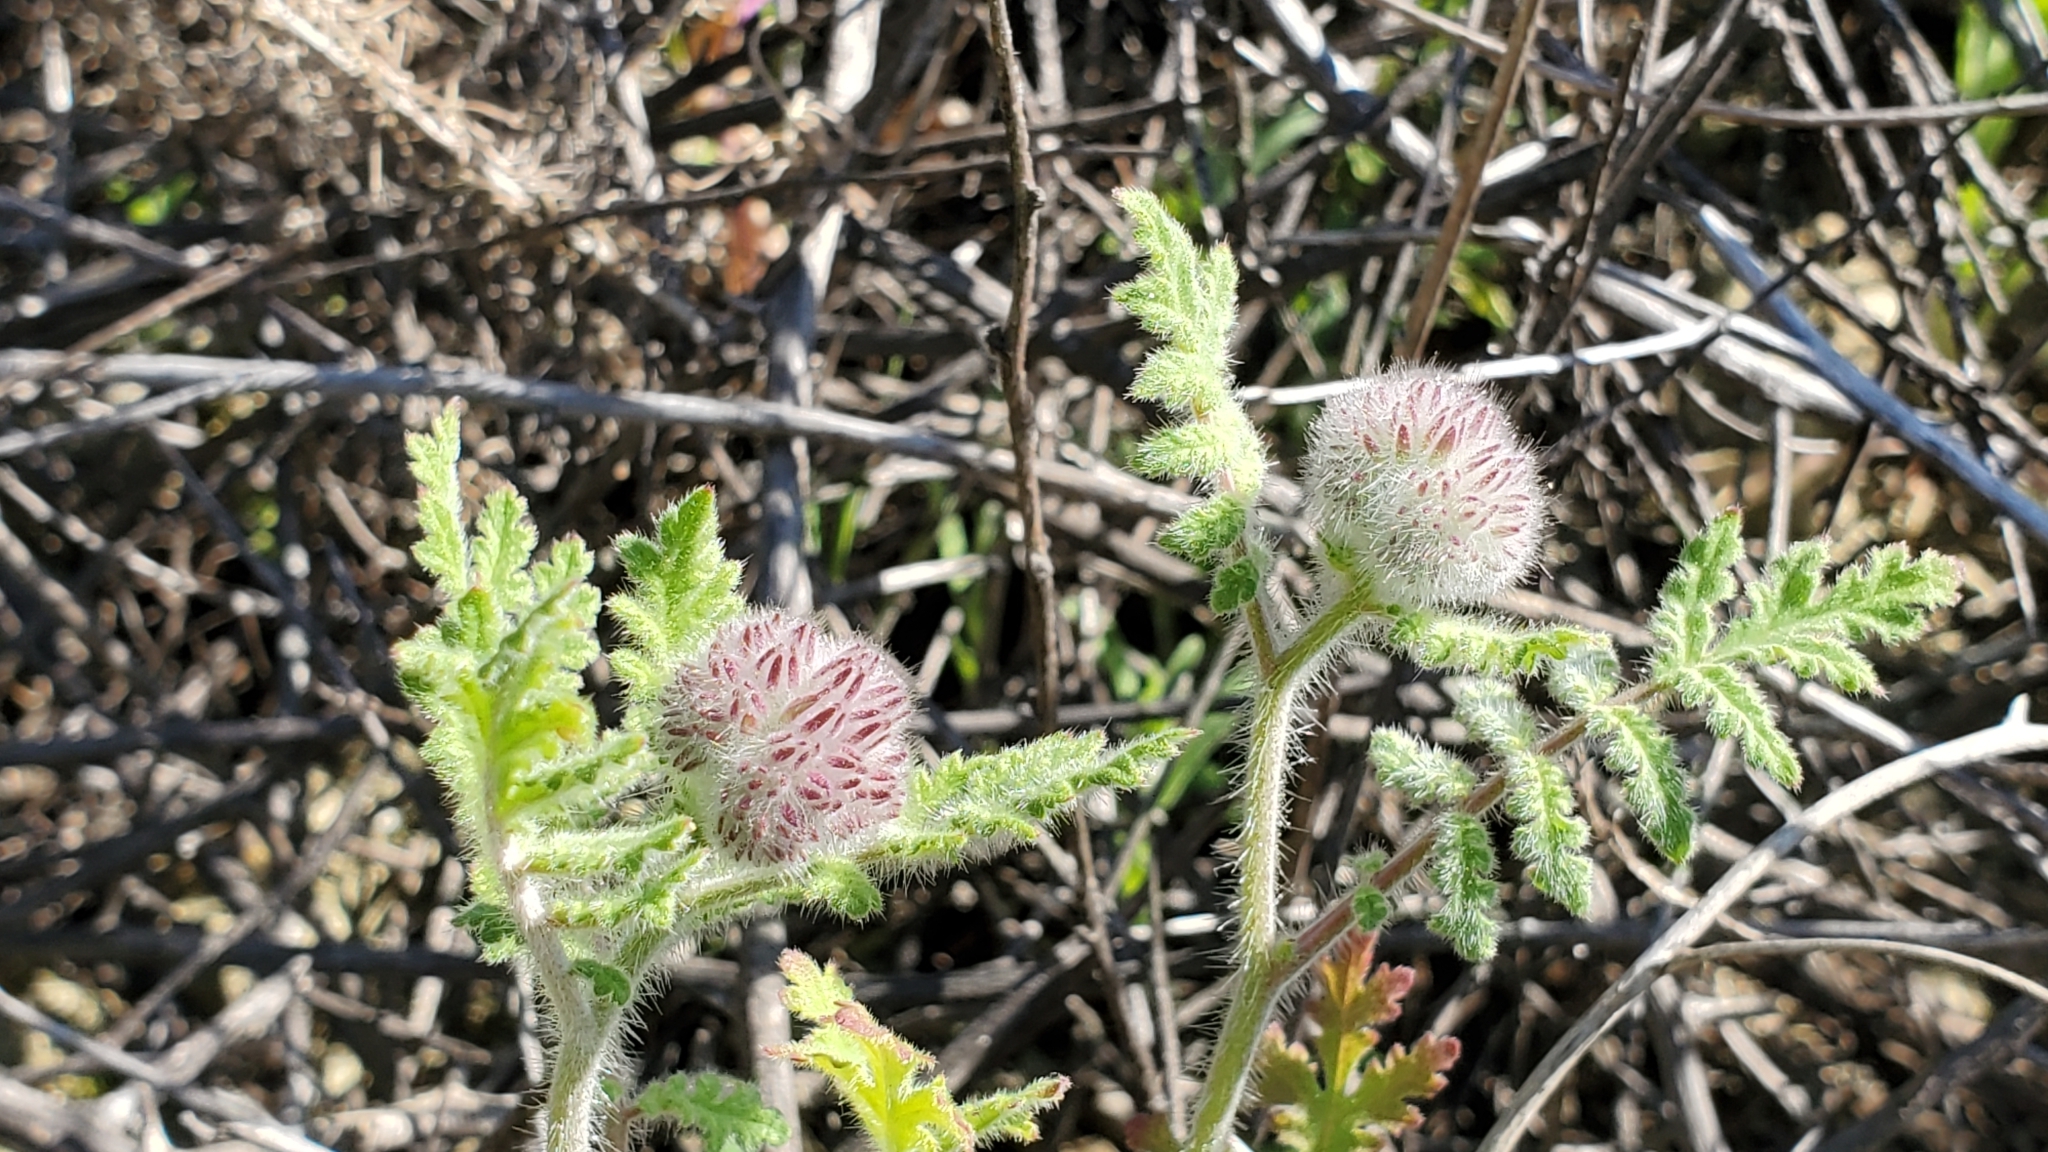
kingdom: Plantae
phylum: Tracheophyta
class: Magnoliopsida
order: Boraginales
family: Hydrophyllaceae
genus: Phacelia
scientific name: Phacelia hubbyi
